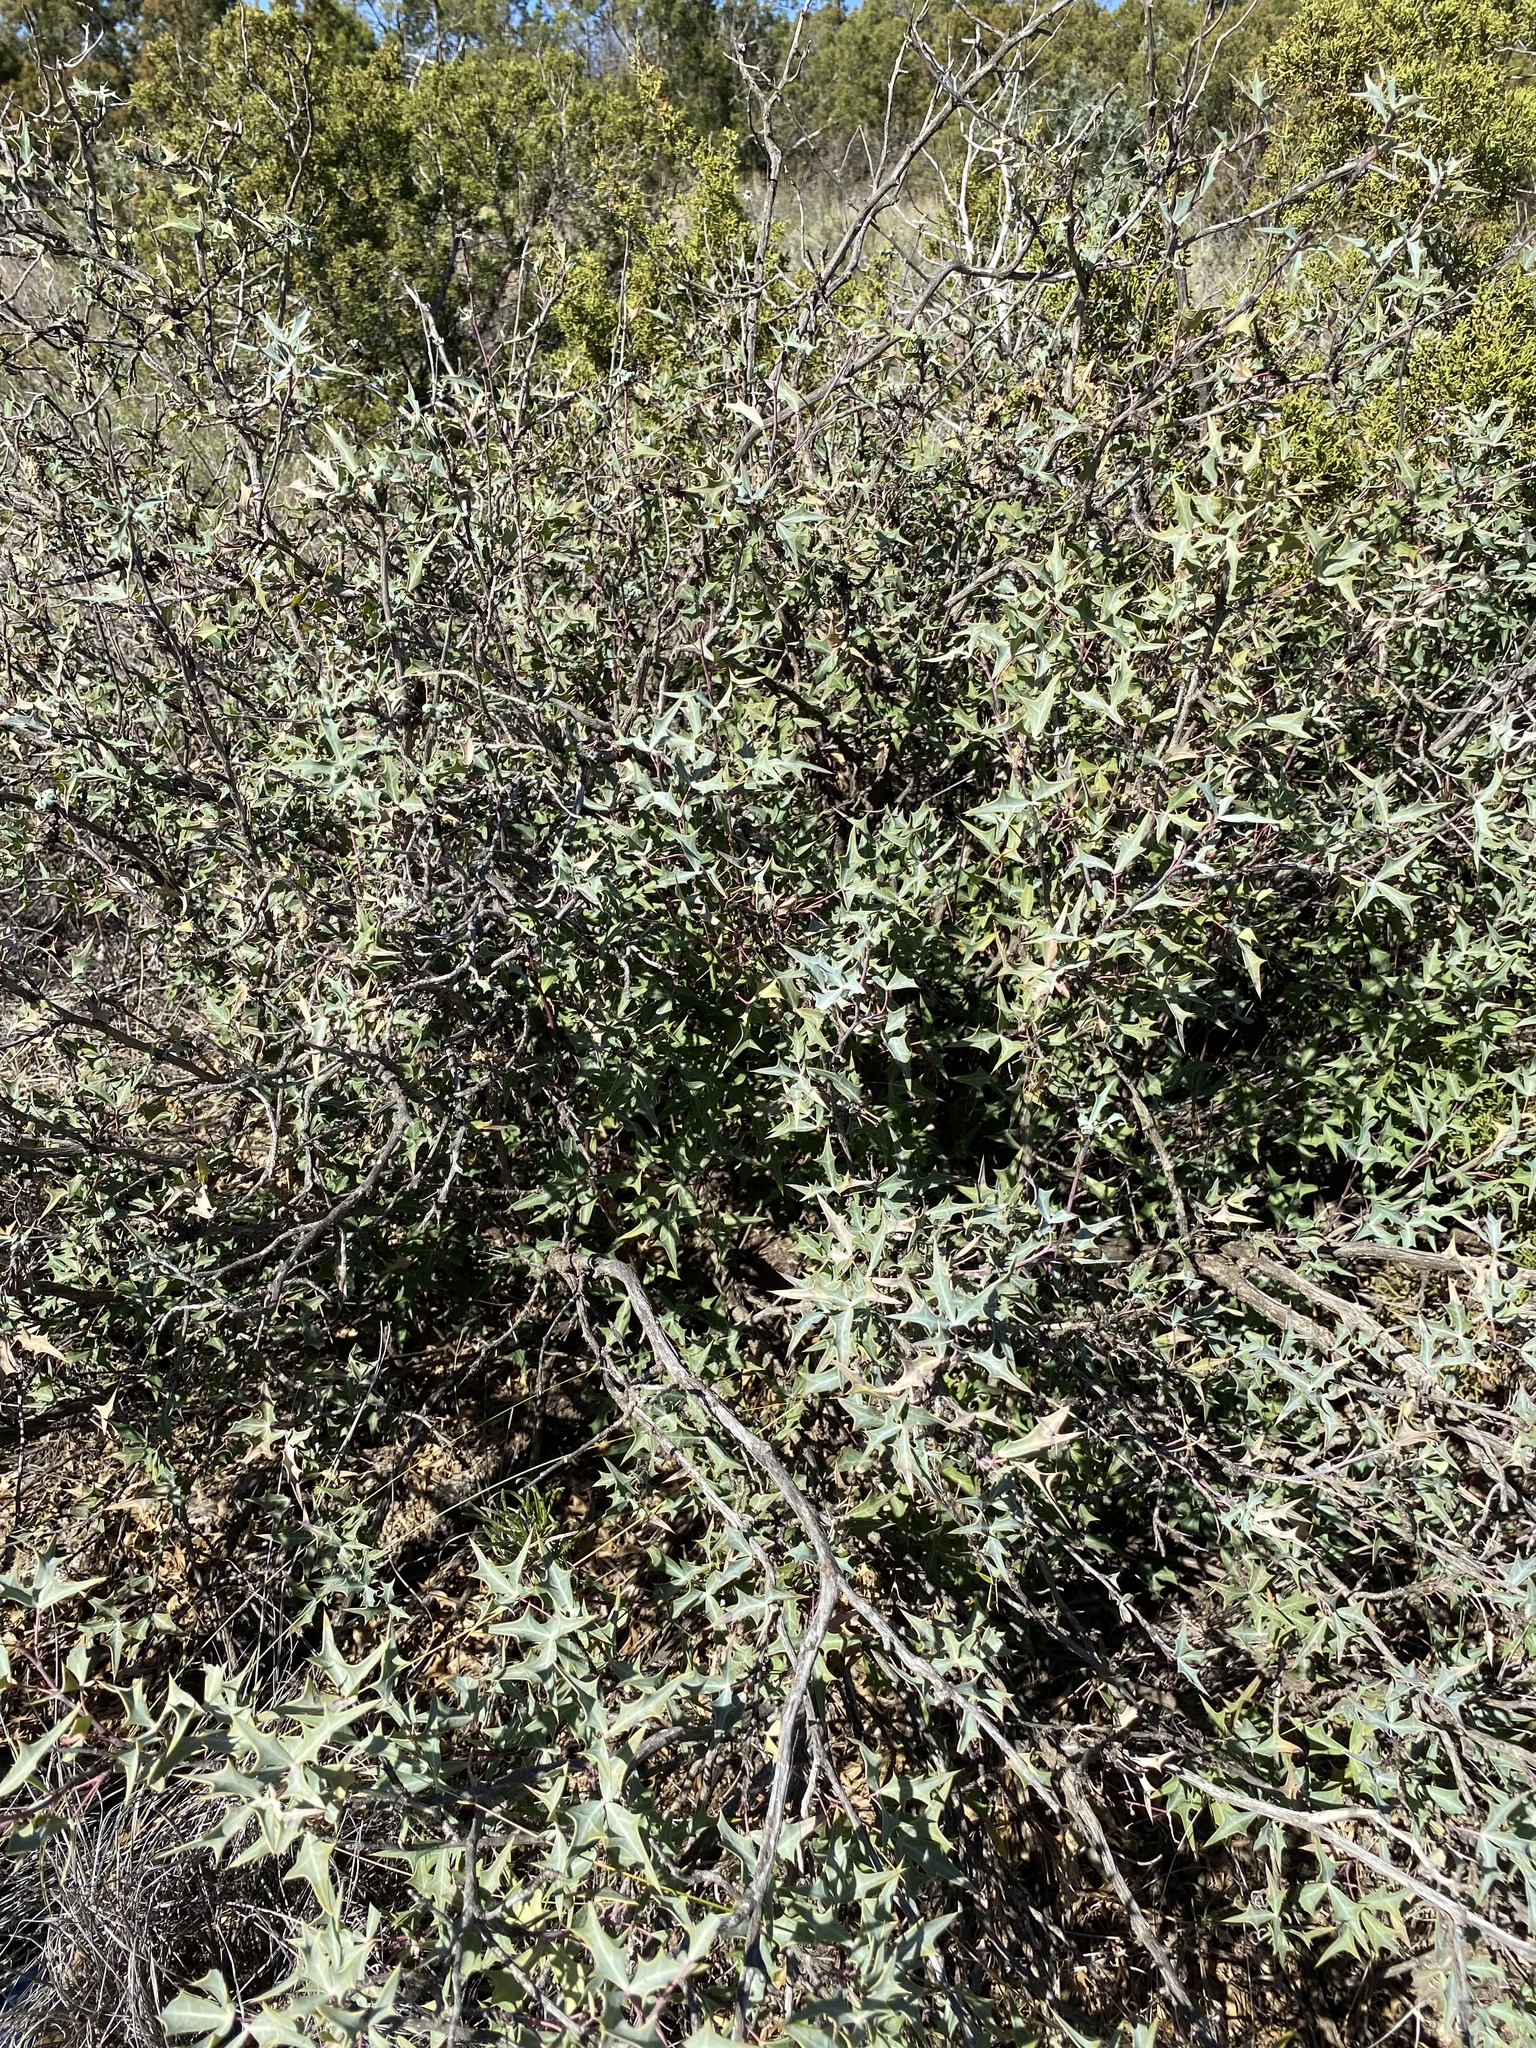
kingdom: Plantae
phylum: Tracheophyta
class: Magnoliopsida
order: Ranunculales
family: Berberidaceae
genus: Alloberberis
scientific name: Alloberberis trifoliolata
